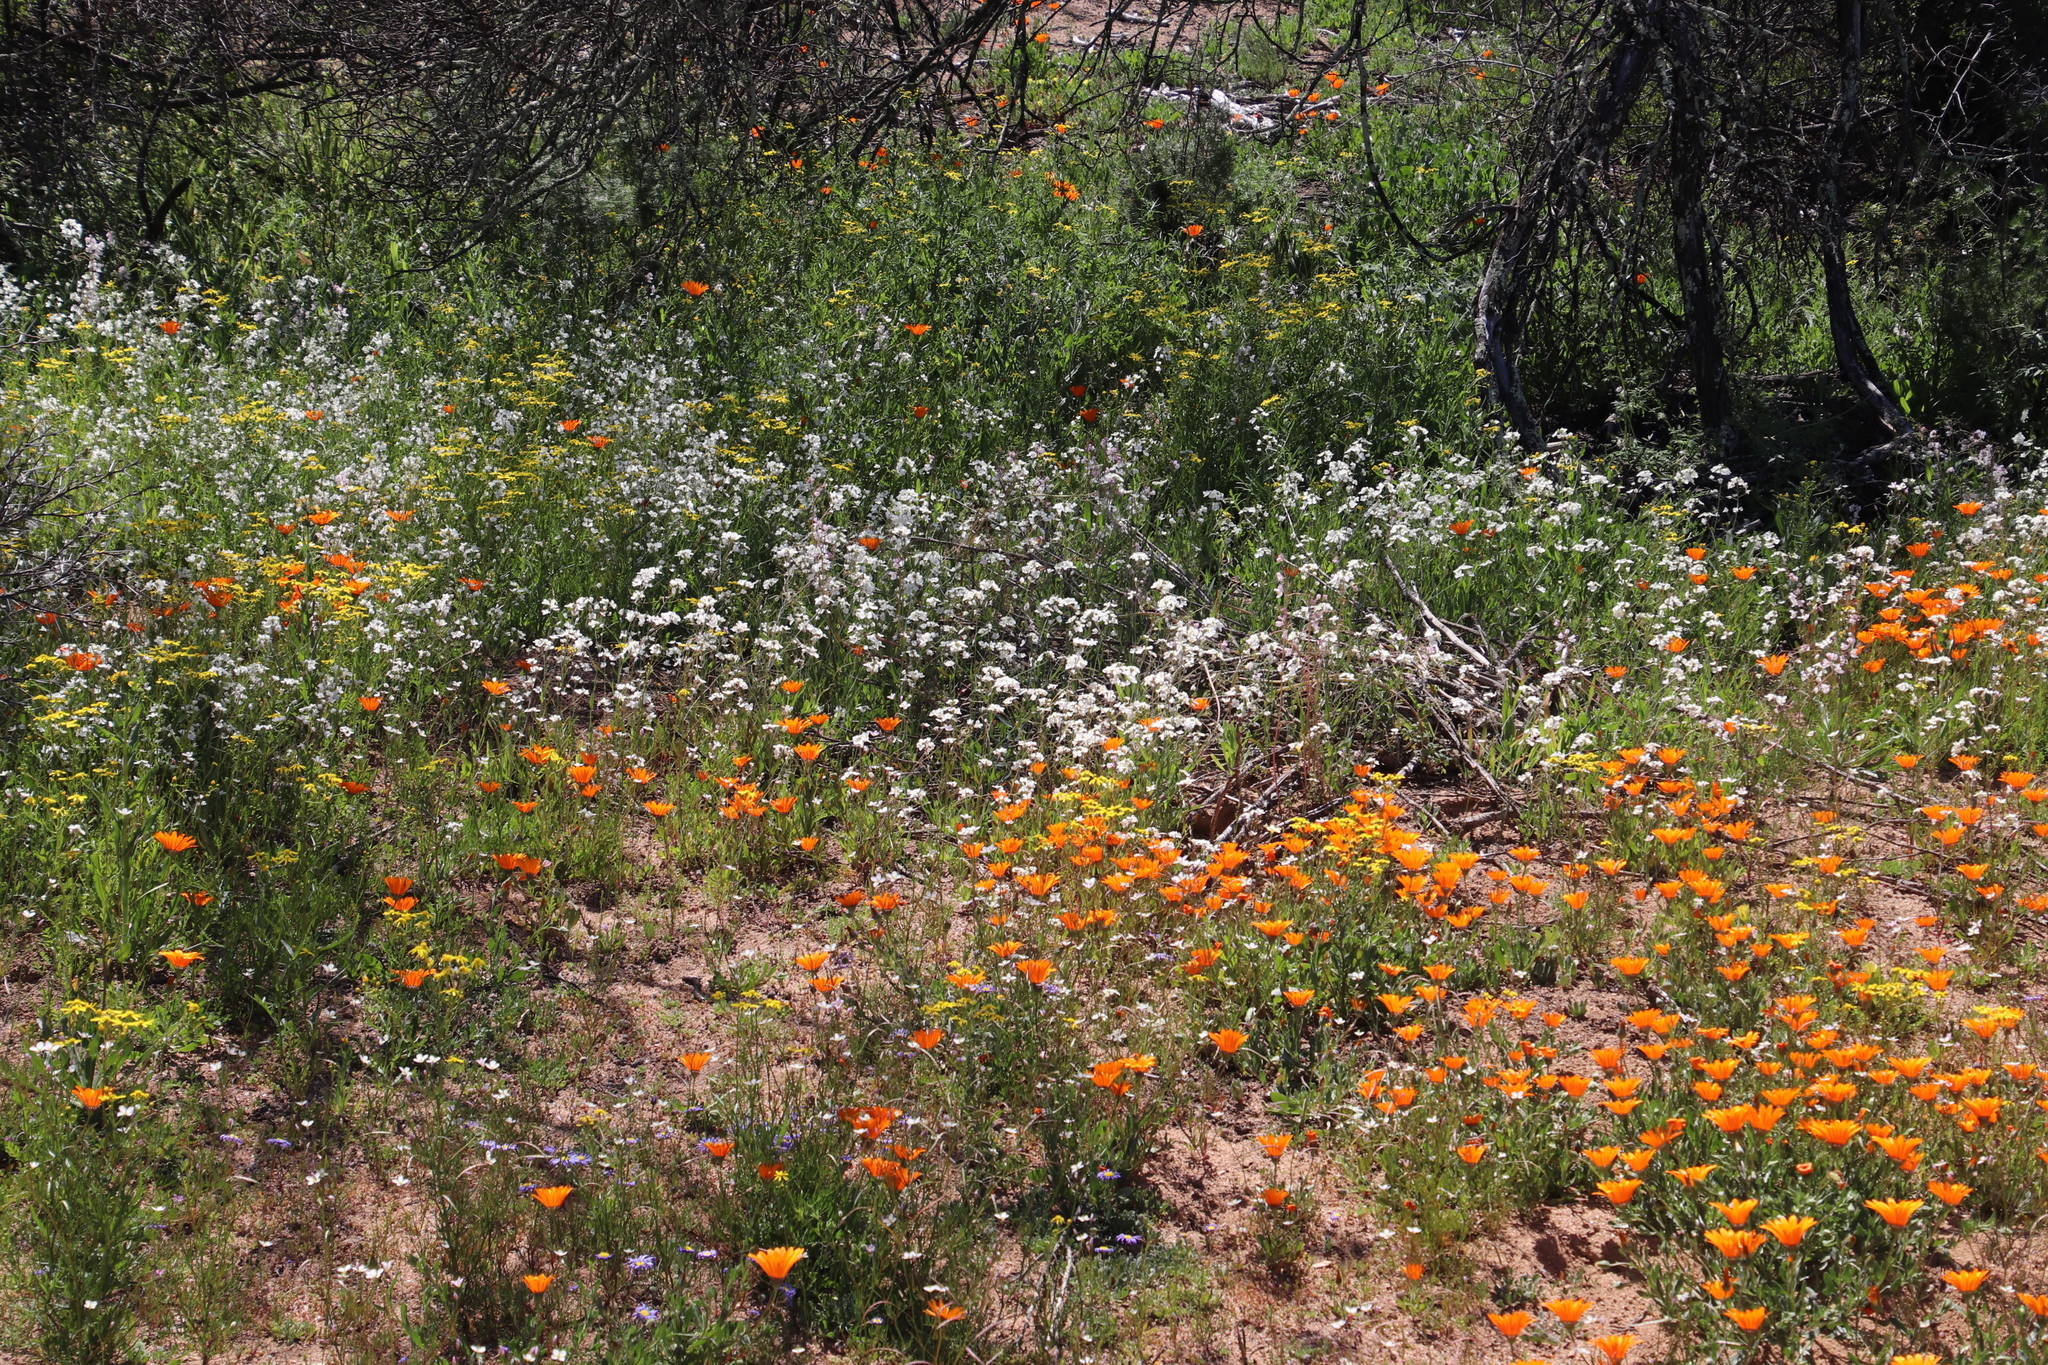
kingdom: Plantae
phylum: Tracheophyta
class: Magnoliopsida
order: Brassicales
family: Brassicaceae
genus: Heliophila
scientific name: Heliophila amplexicaulis
